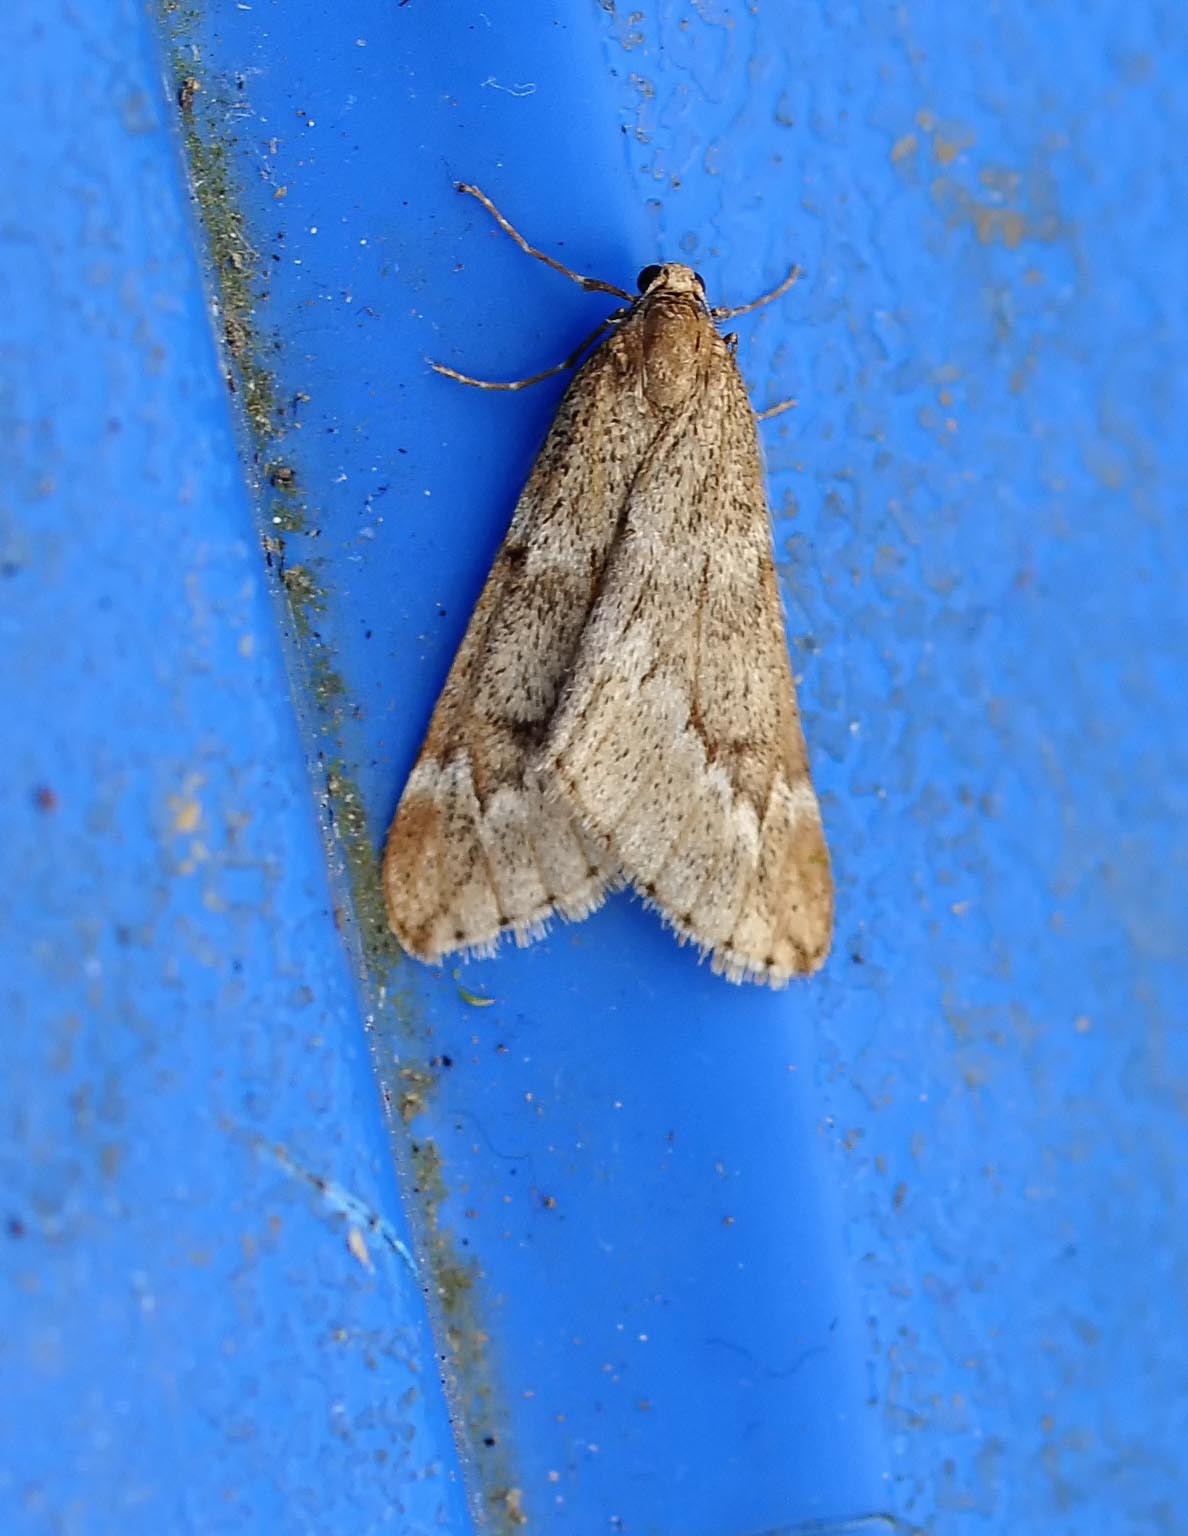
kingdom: Animalia
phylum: Arthropoda
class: Insecta
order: Lepidoptera
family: Geometridae
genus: Alsophila
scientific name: Alsophila aescularia
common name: March moth
